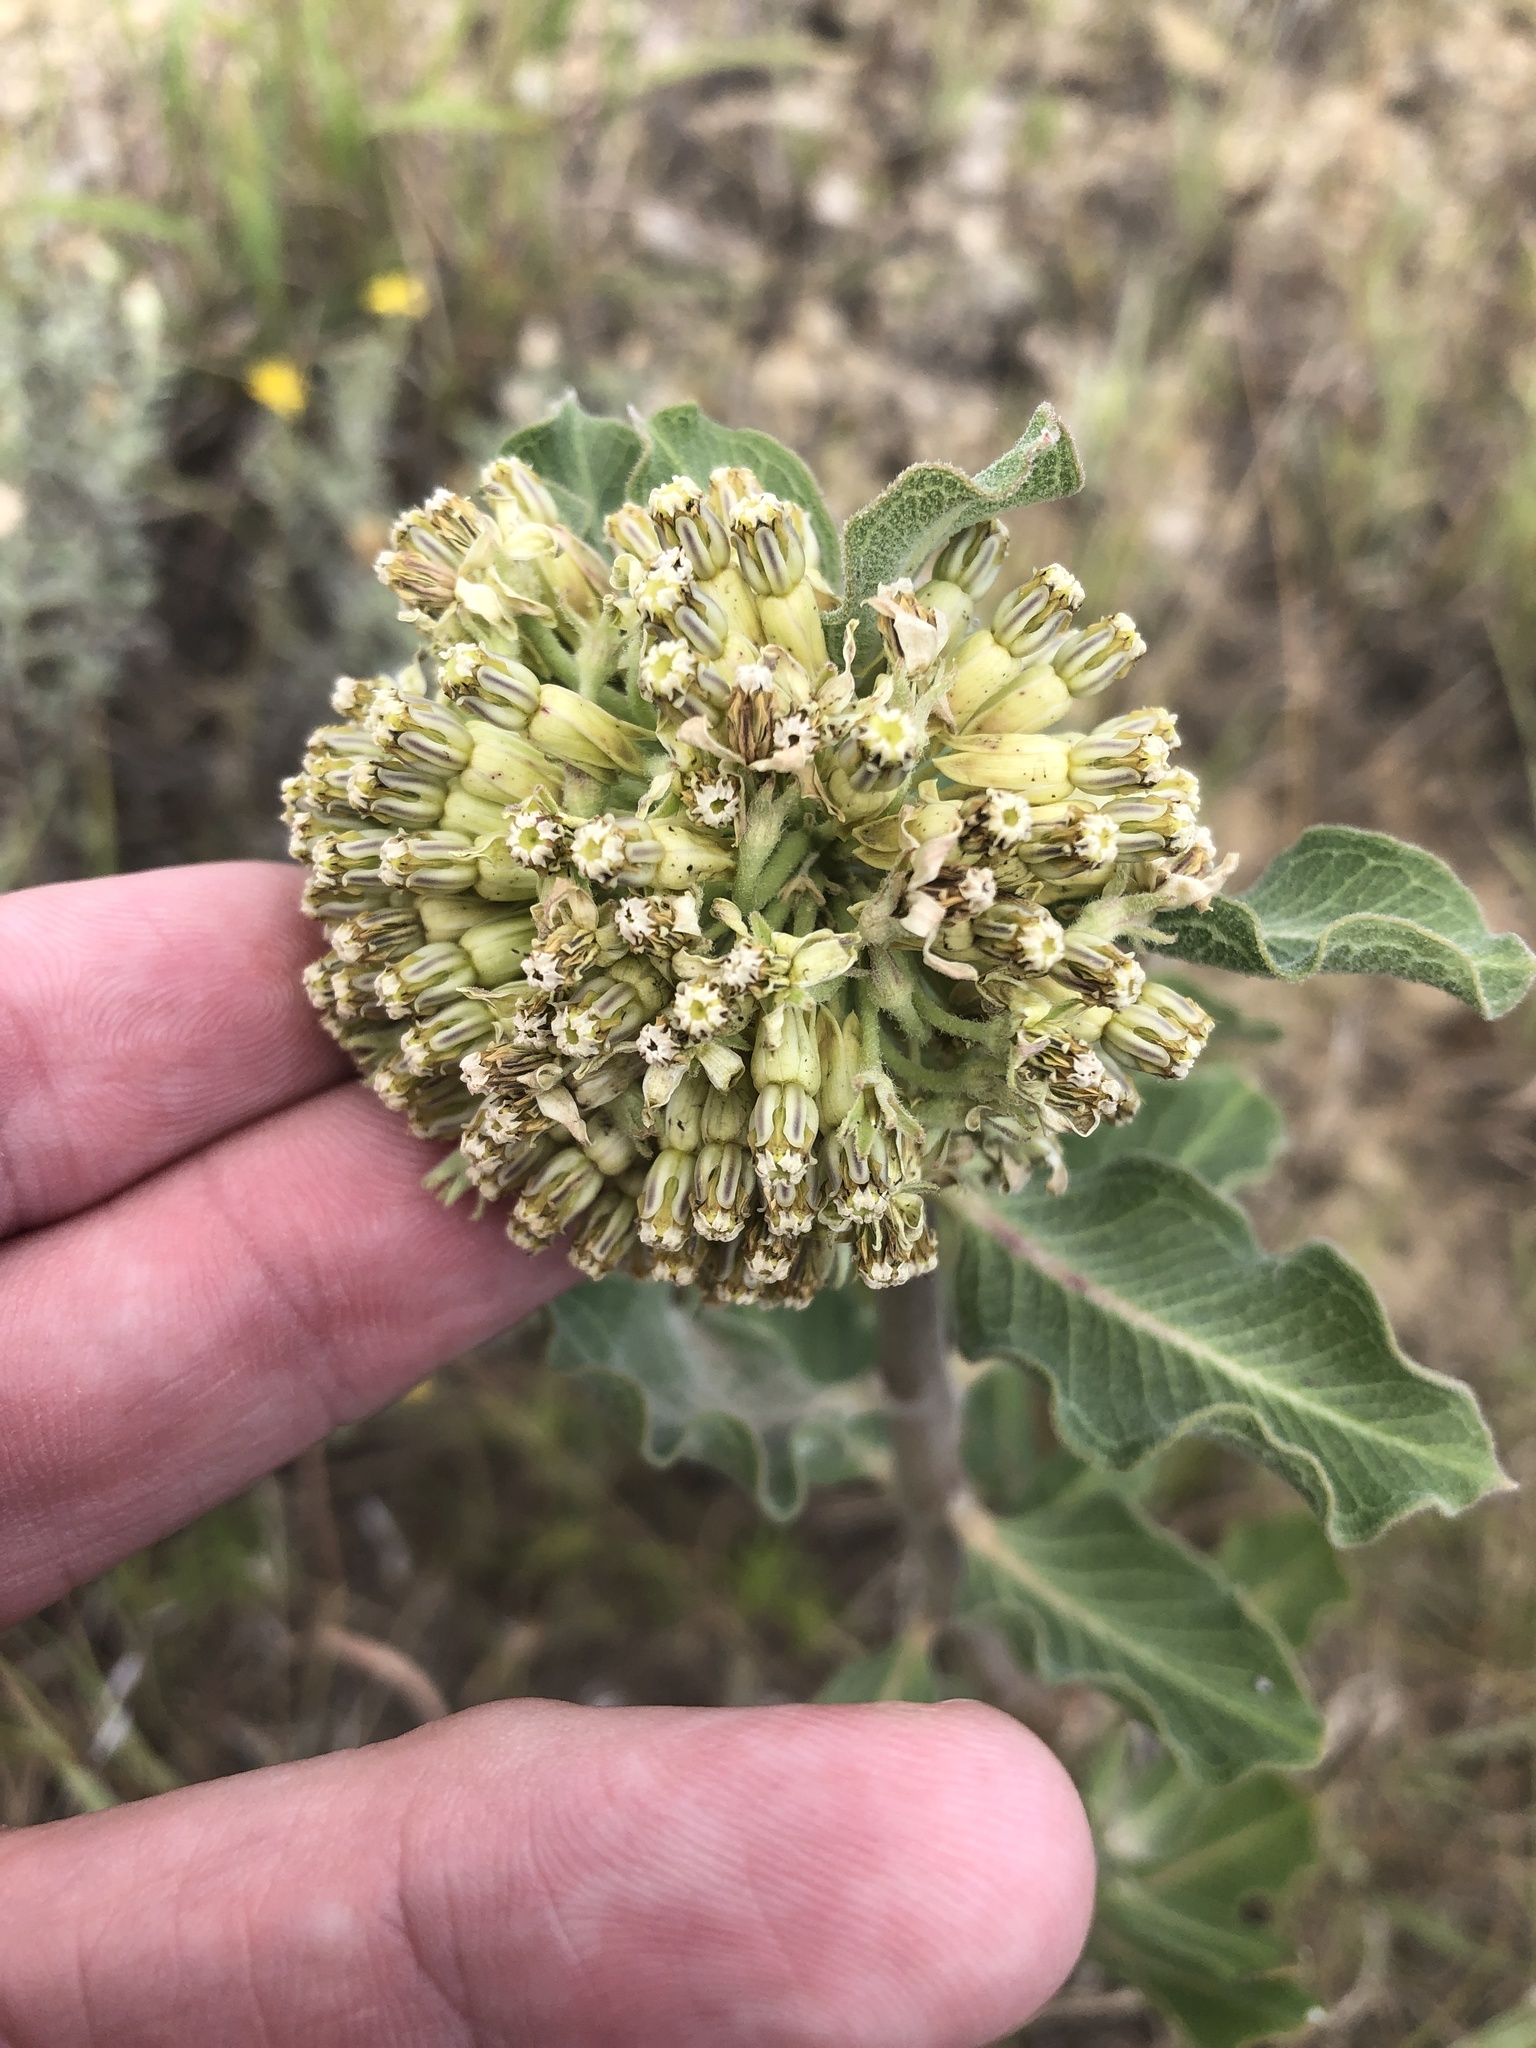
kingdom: Plantae
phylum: Tracheophyta
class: Magnoliopsida
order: Gentianales
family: Apocynaceae
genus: Asclepias
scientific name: Asclepias viridiflora
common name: Green comet milkweed
